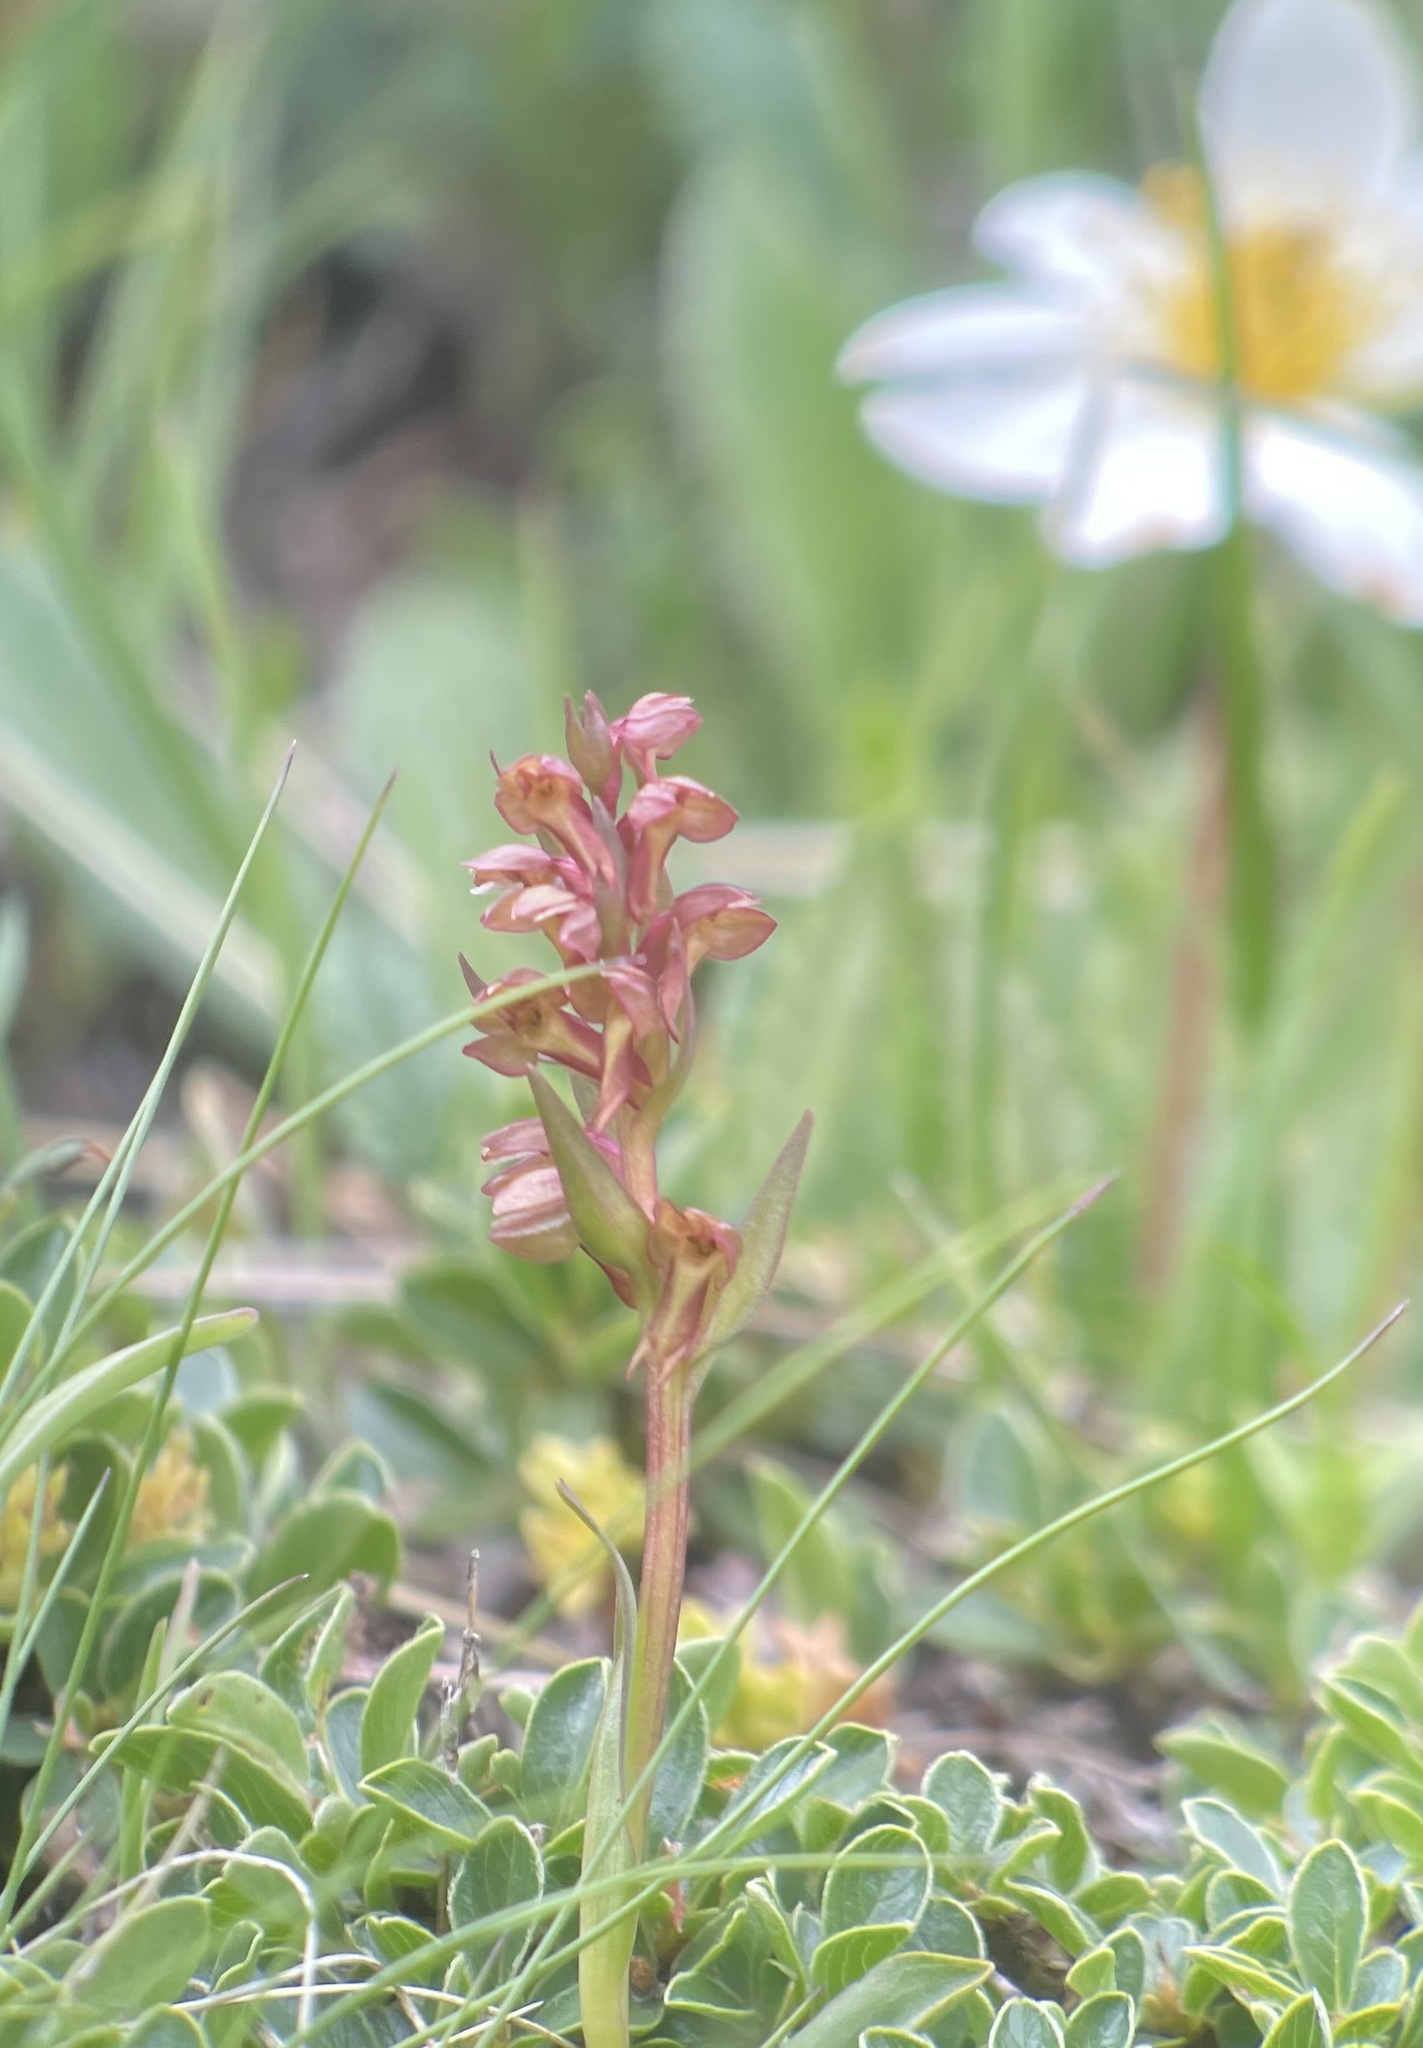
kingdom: Plantae
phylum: Tracheophyta
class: Liliopsida
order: Asparagales
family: Orchidaceae
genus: Dactylorhiza
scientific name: Dactylorhiza viridis
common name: Longbract frog orchid
